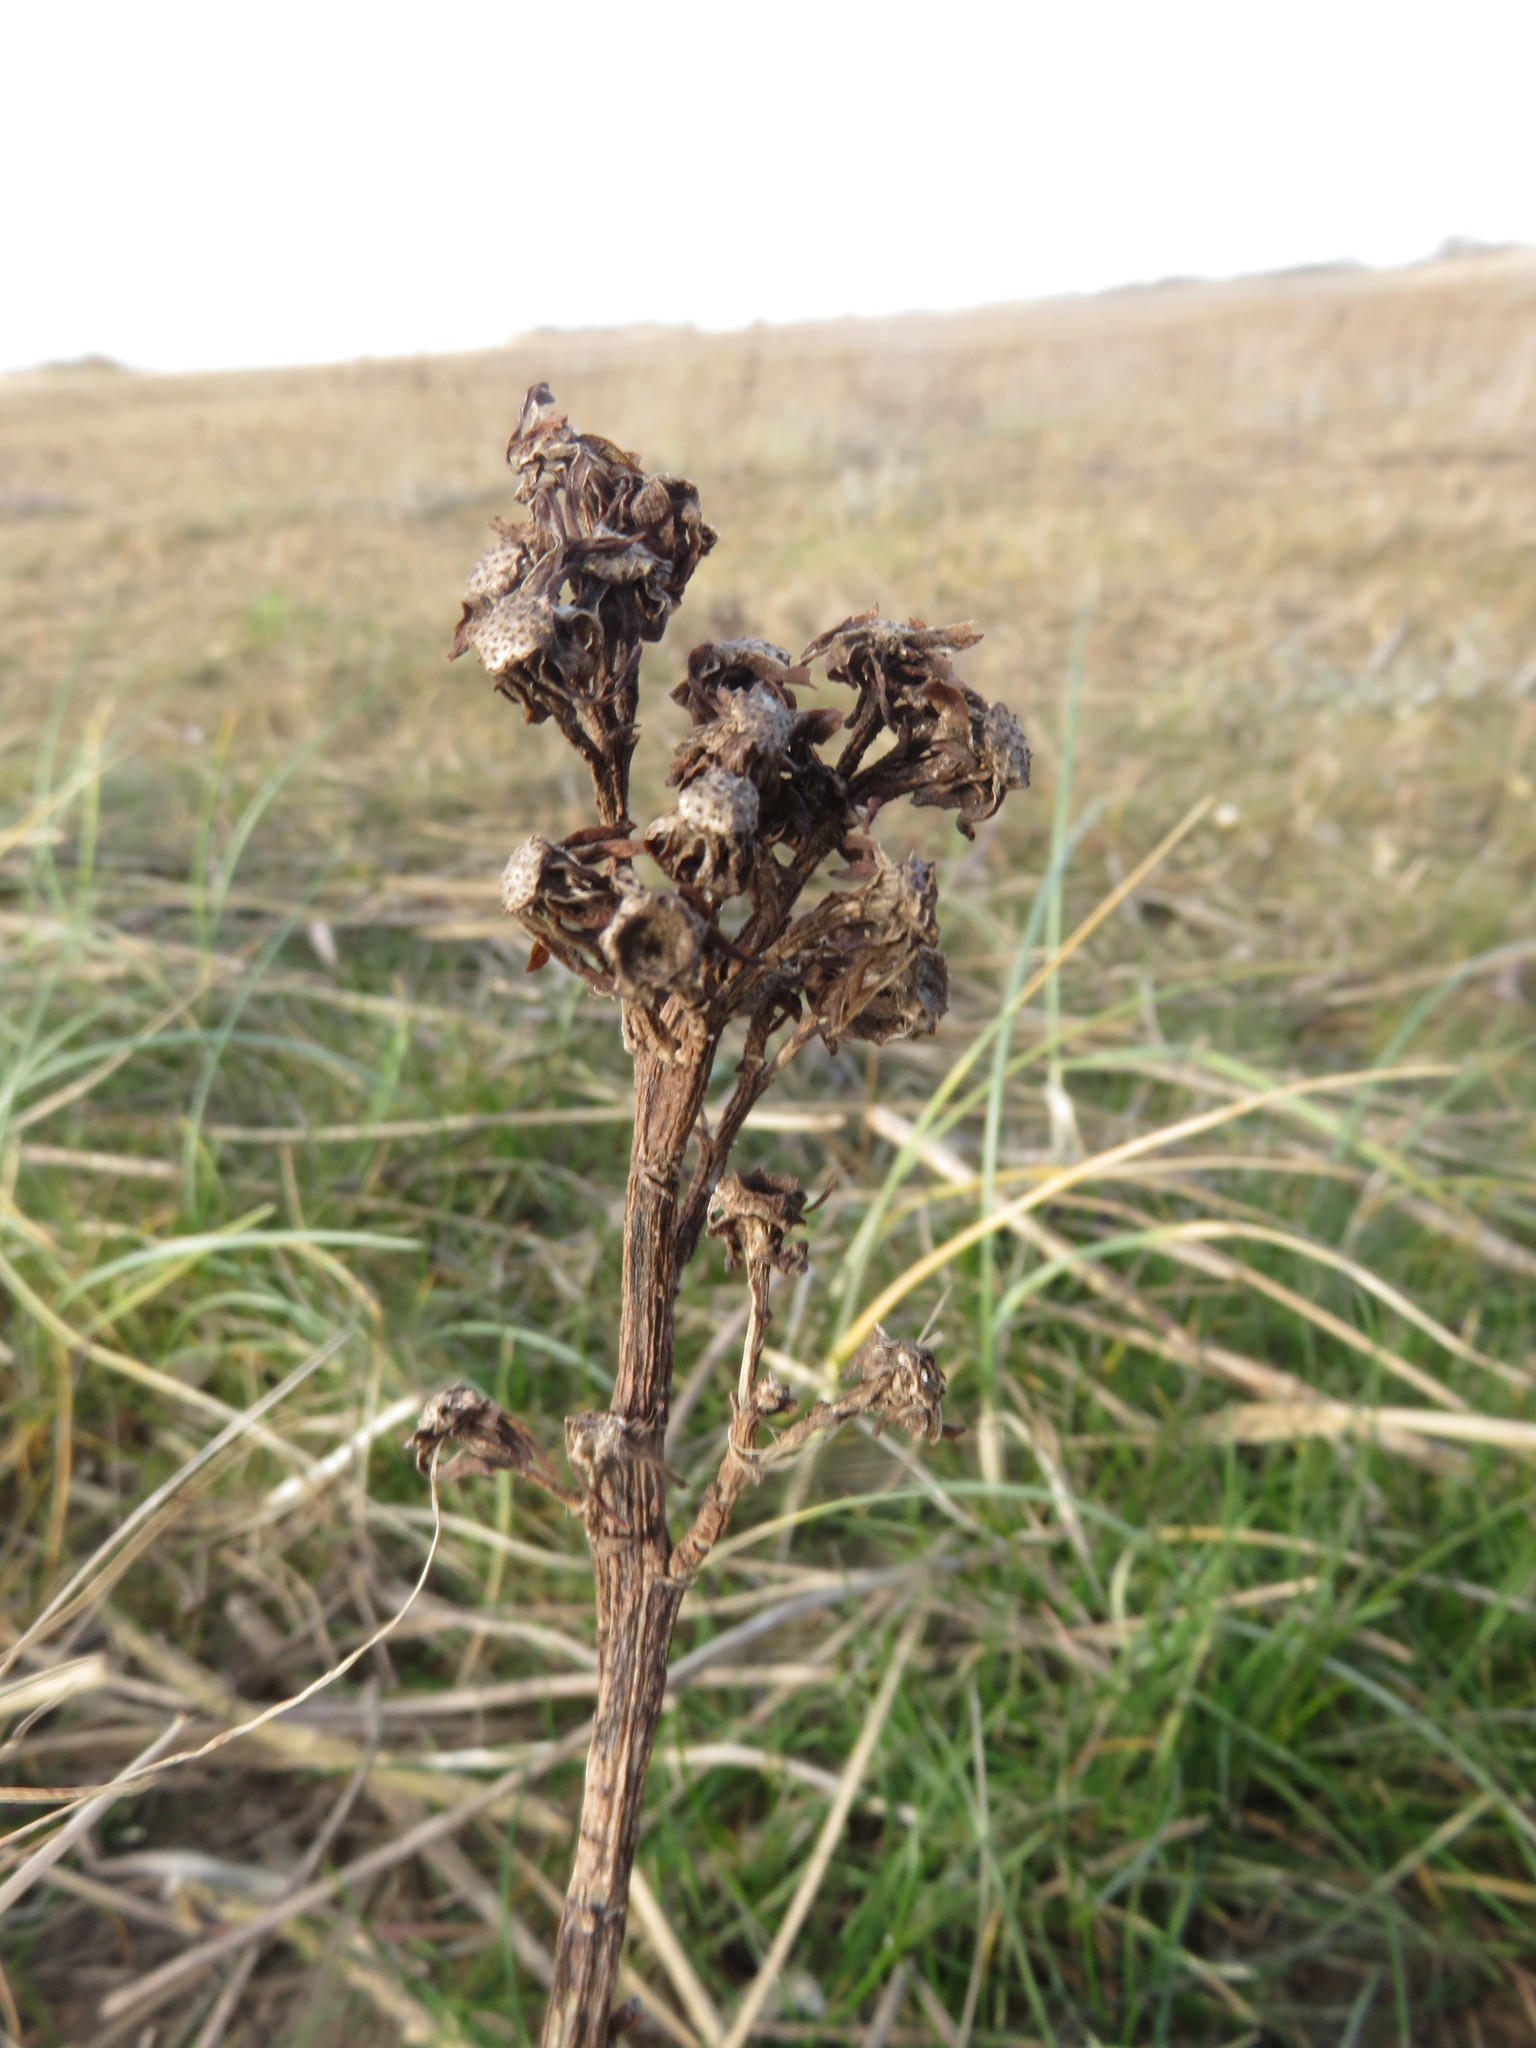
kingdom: Plantae
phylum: Tracheophyta
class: Magnoliopsida
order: Asterales
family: Asteraceae
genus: Tripolium
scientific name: Tripolium pannonicum
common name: Sea aster
